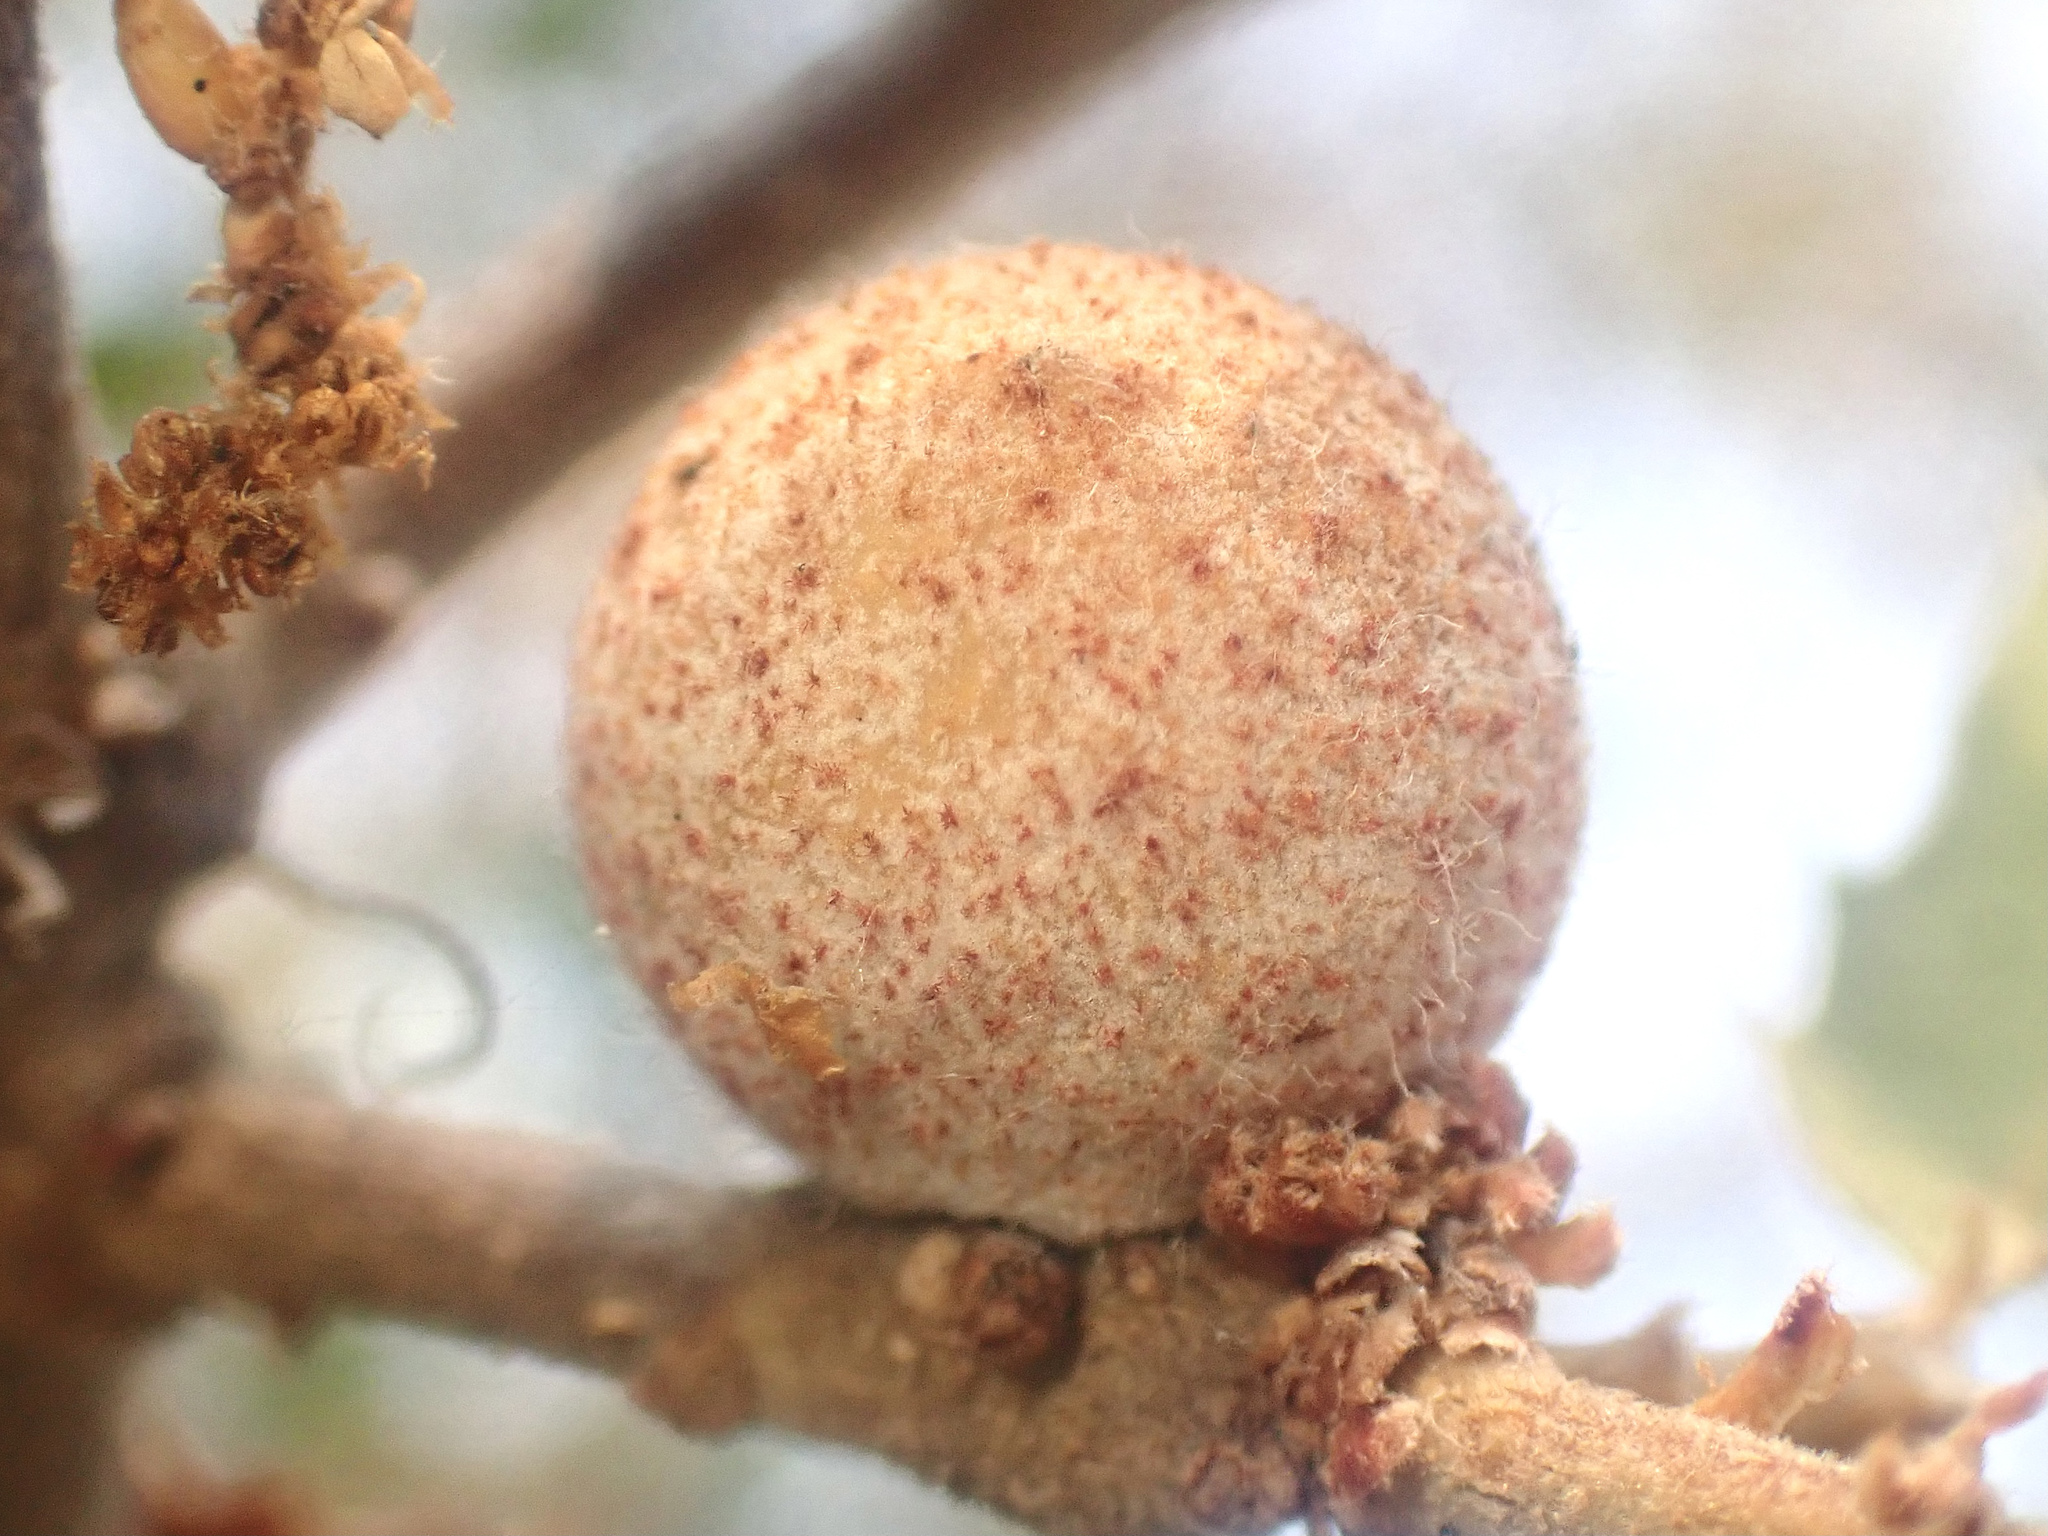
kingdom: Animalia
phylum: Arthropoda
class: Insecta
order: Hymenoptera
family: Cynipidae
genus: Burnettweldia
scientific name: Burnettweldia
